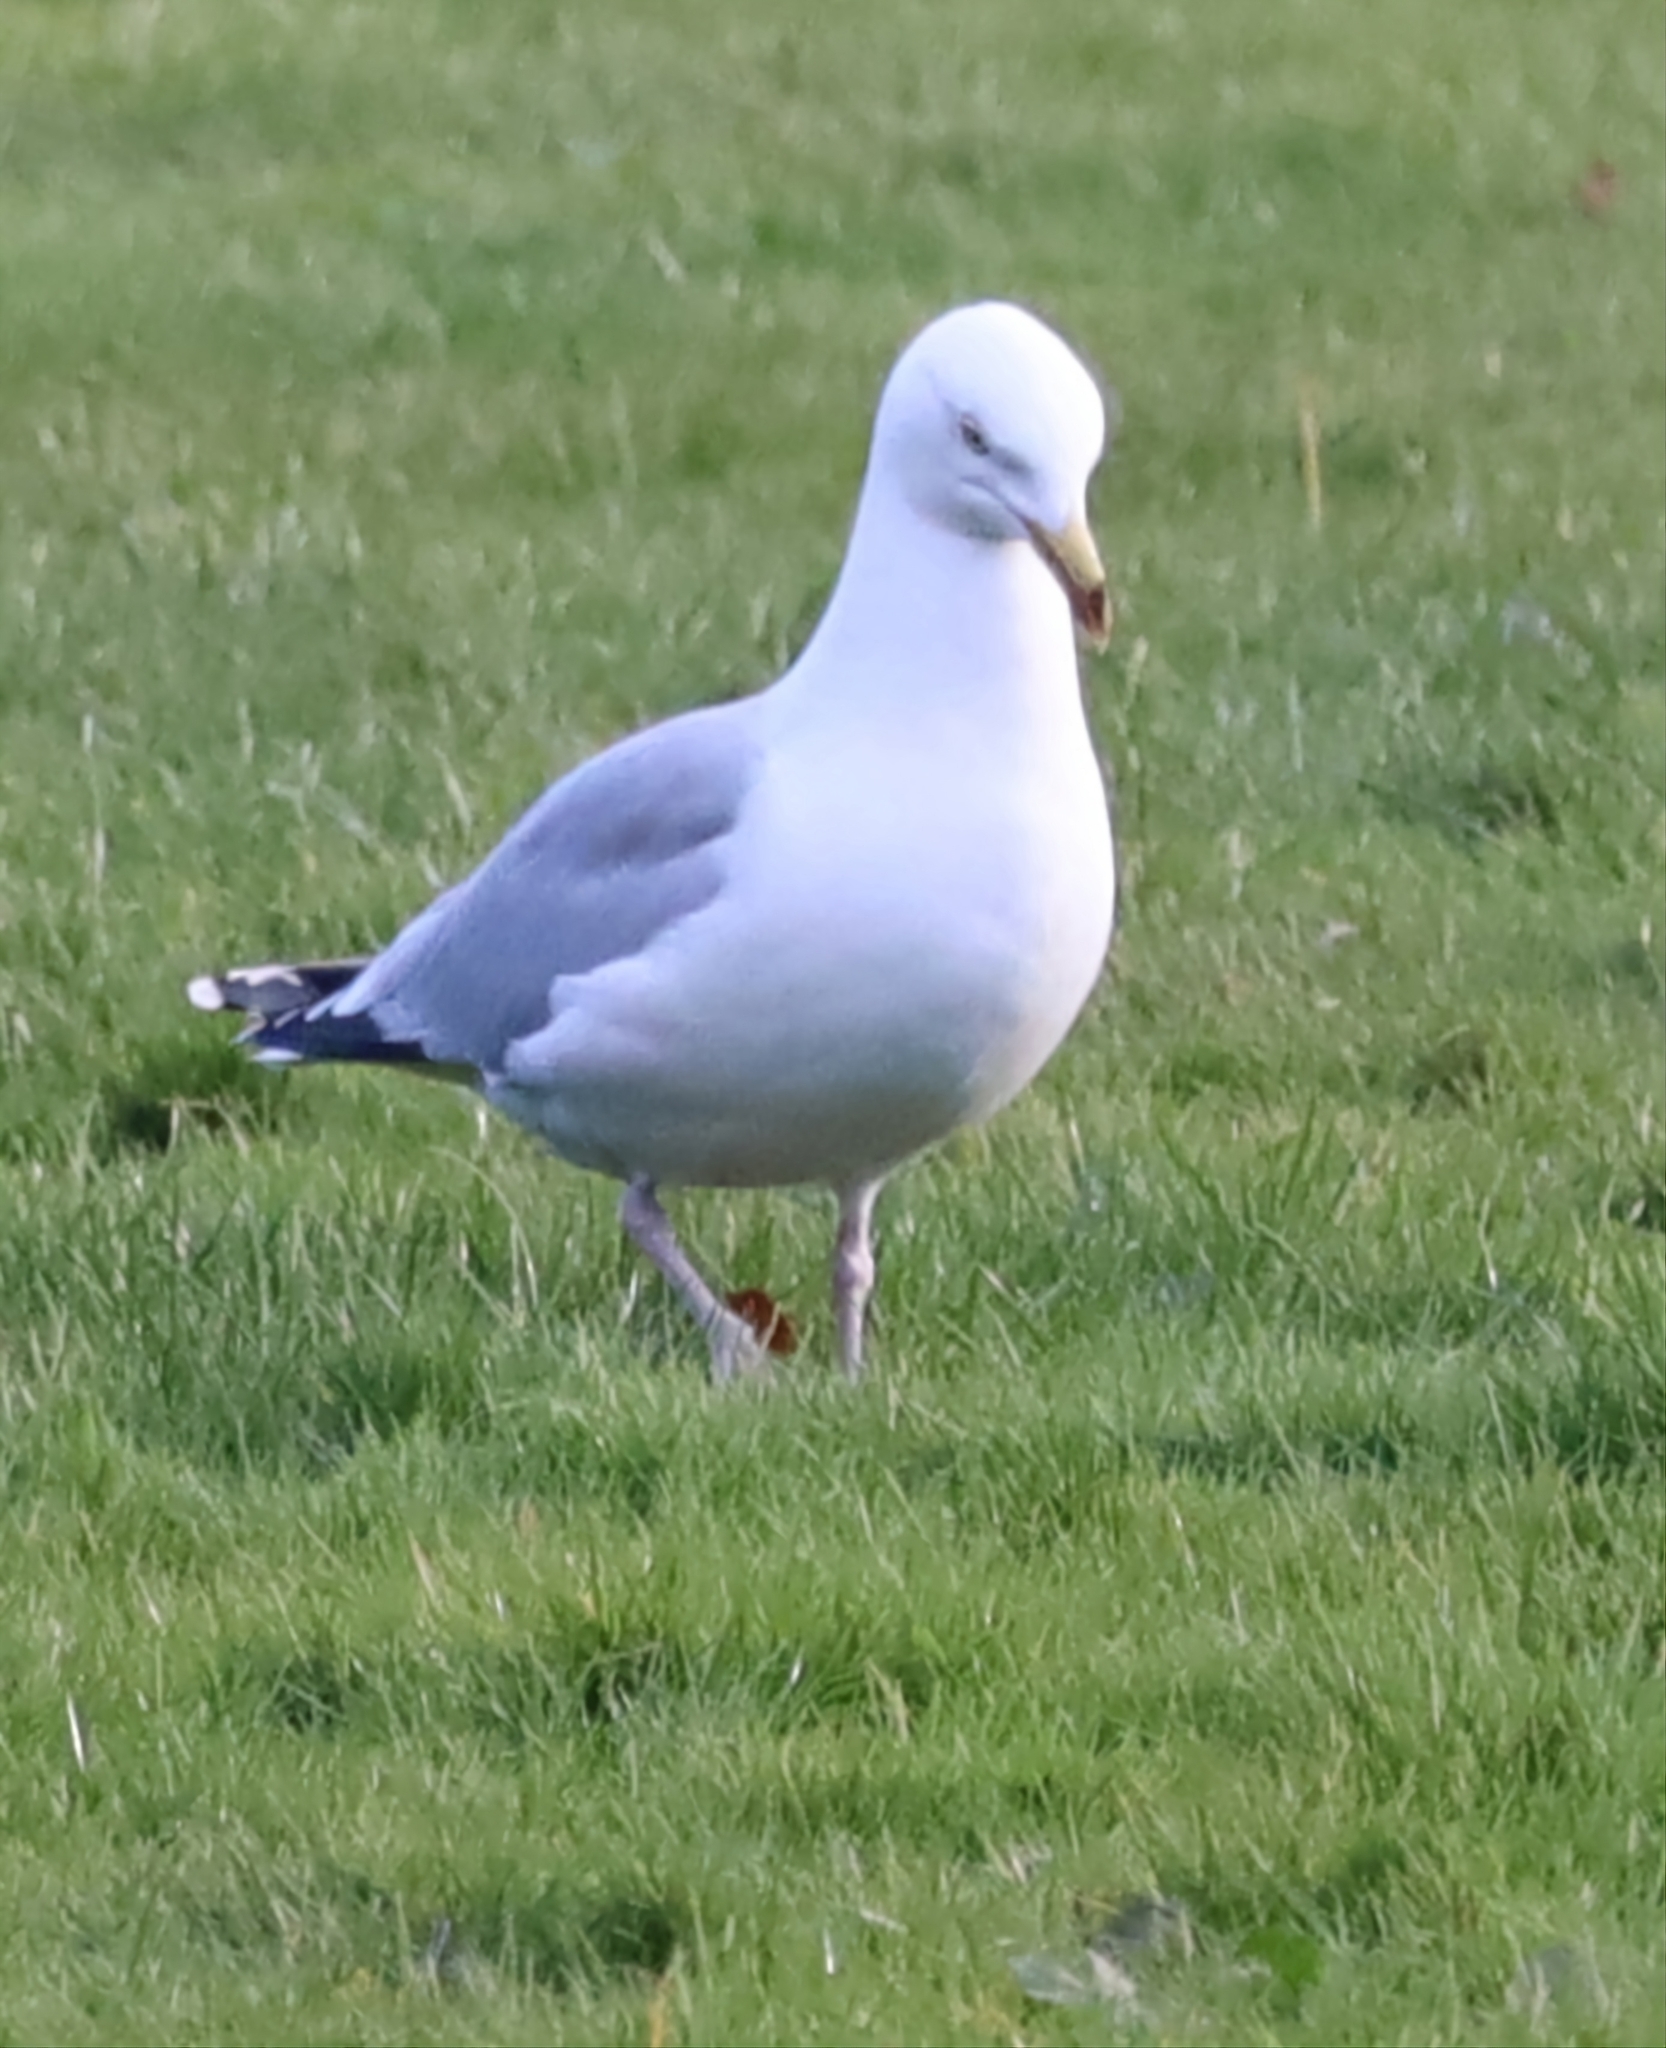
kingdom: Animalia
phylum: Chordata
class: Aves
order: Charadriiformes
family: Laridae
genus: Larus
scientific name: Larus argentatus
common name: Herring gull
